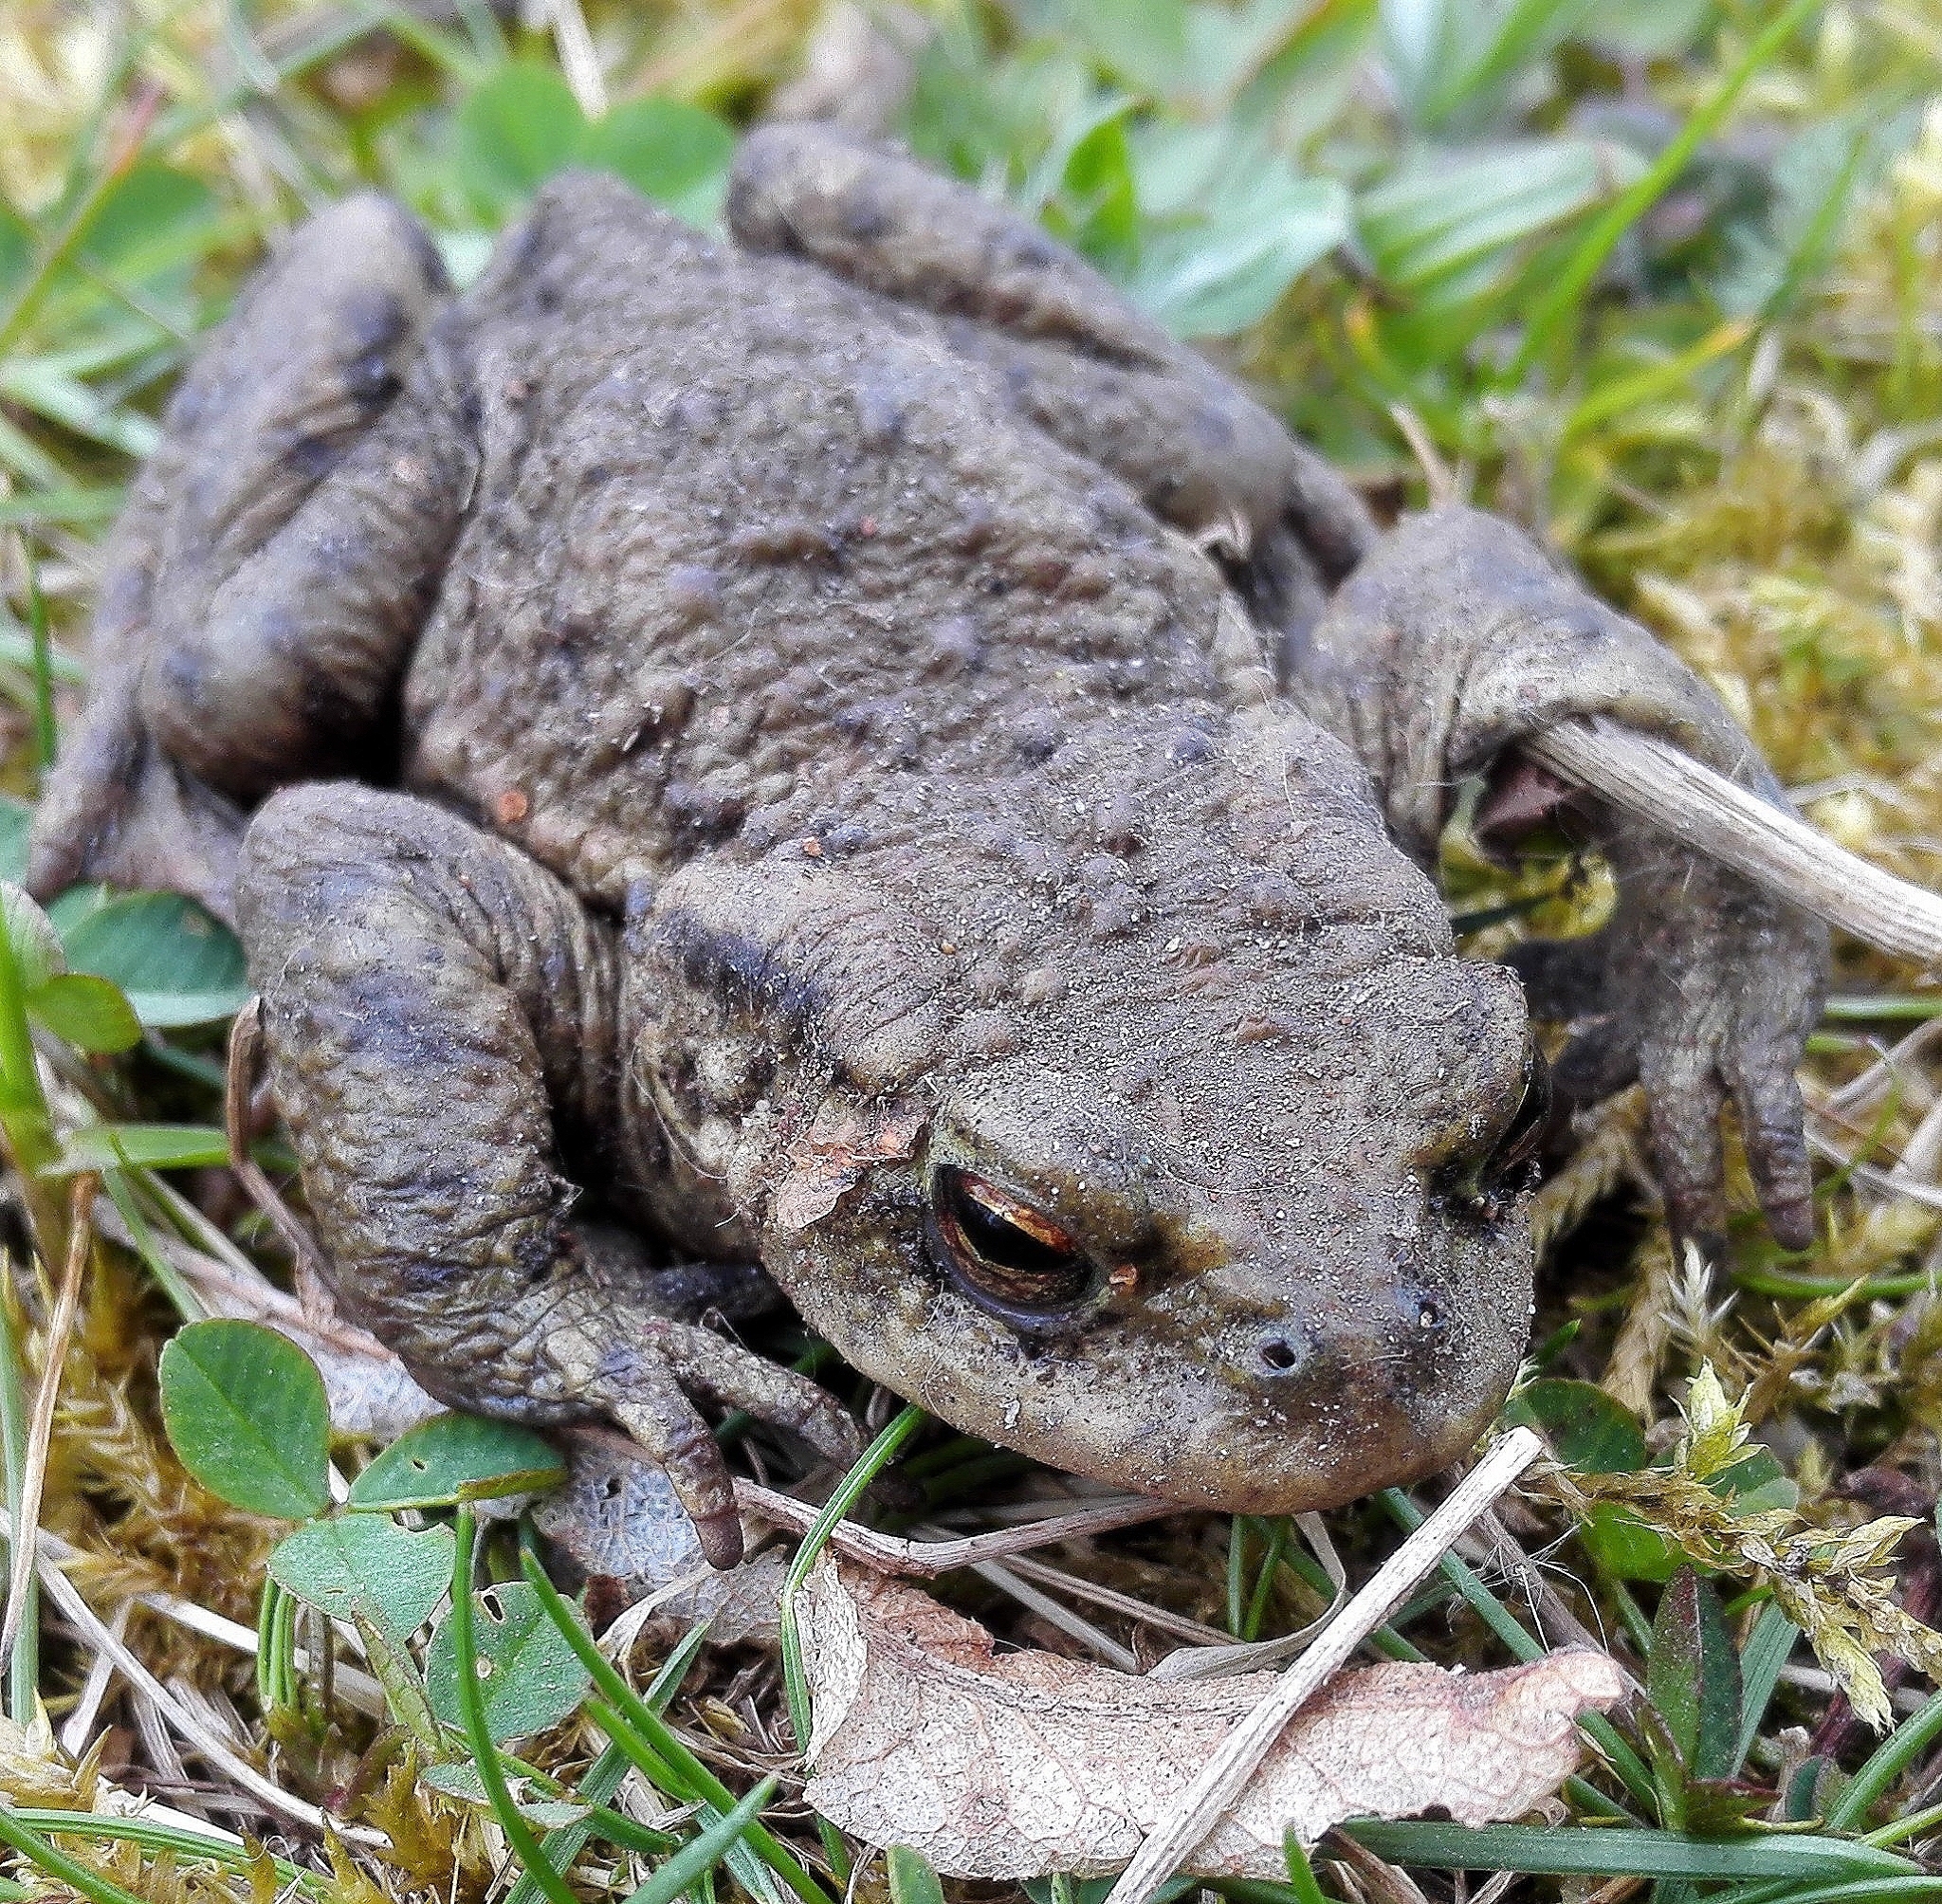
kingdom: Animalia
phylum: Chordata
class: Amphibia
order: Anura
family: Bufonidae
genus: Bufo
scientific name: Bufo bufo
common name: Common toad
